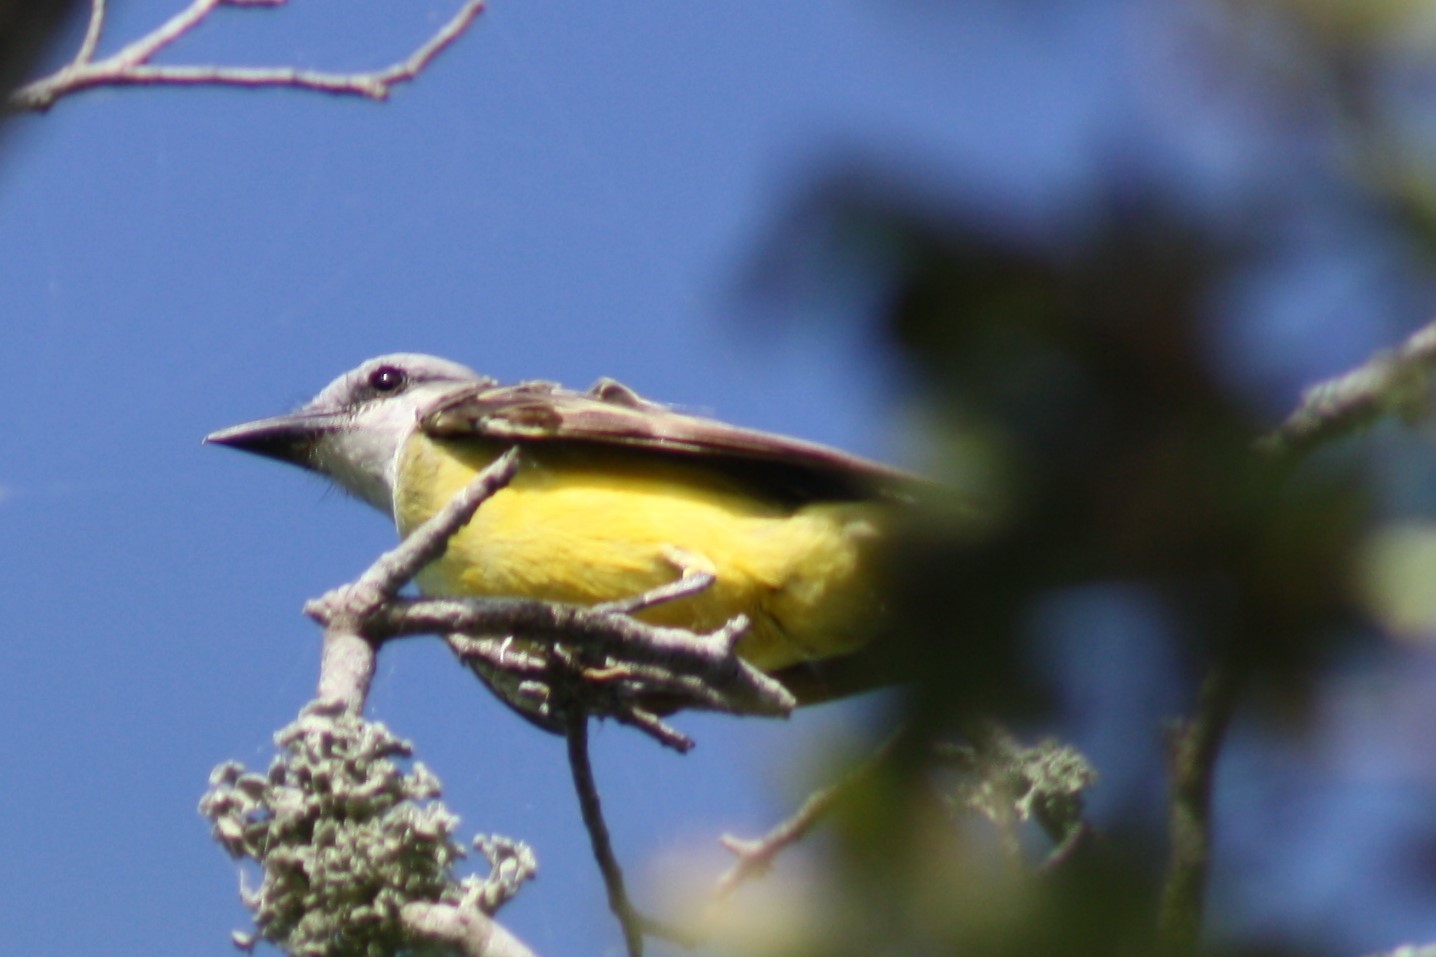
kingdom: Animalia
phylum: Chordata
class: Aves
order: Passeriformes
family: Tyrannidae
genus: Tyrannus
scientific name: Tyrannus
